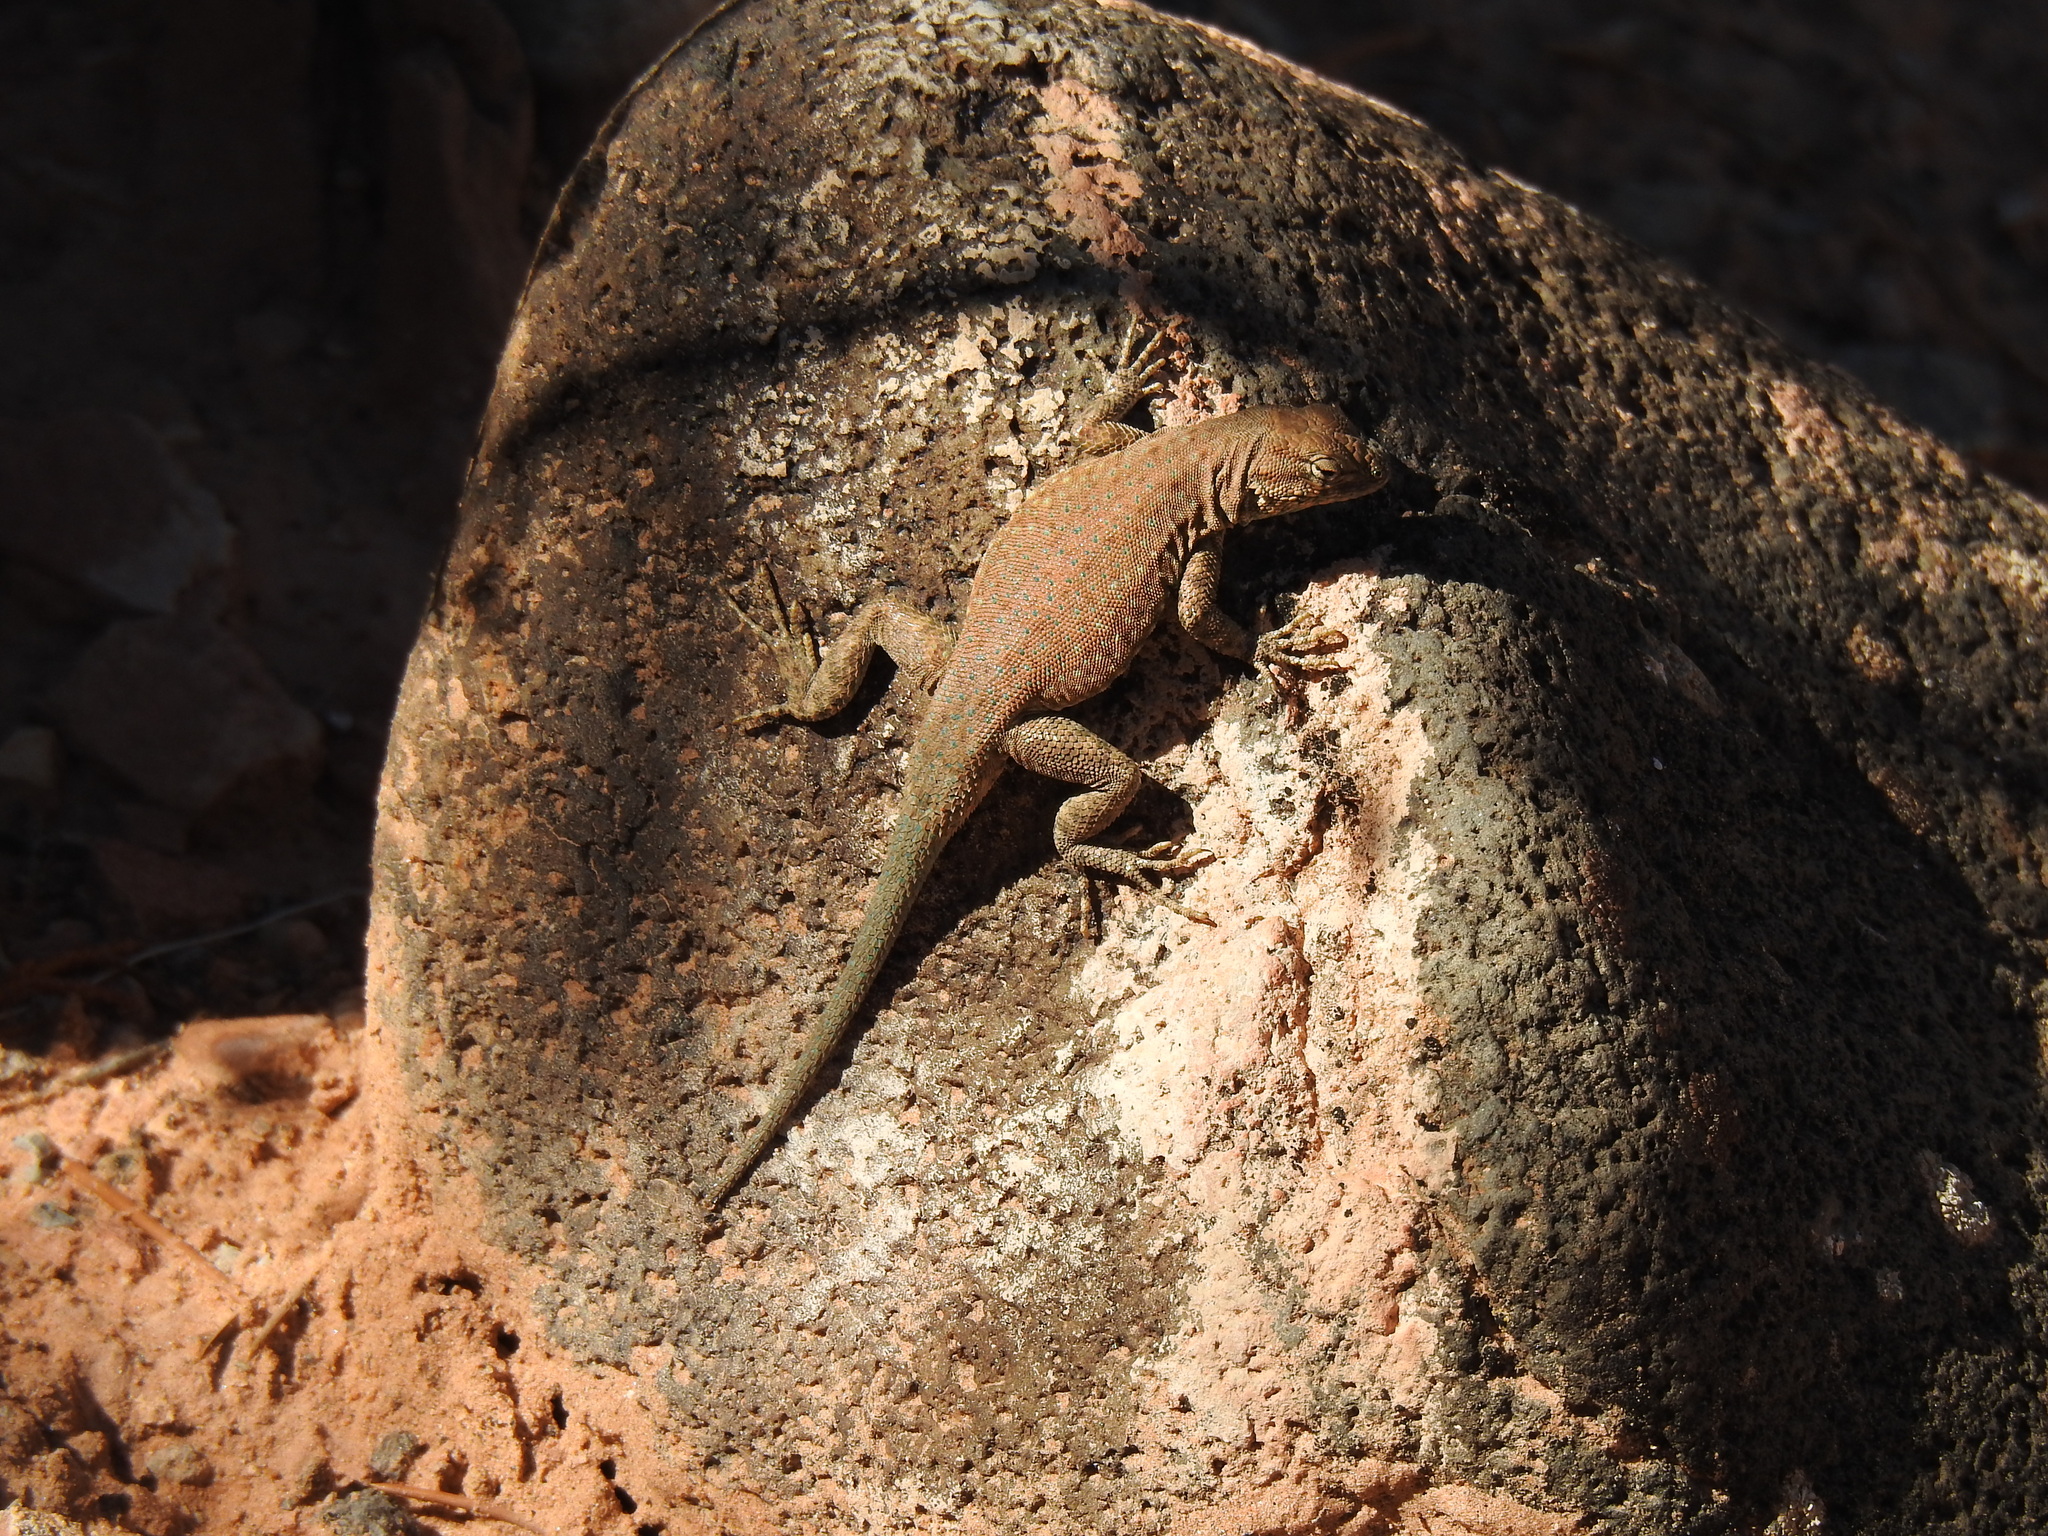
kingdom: Animalia
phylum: Chordata
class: Squamata
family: Phrynosomatidae
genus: Uta
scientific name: Uta stansburiana
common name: Side-blotched lizard
